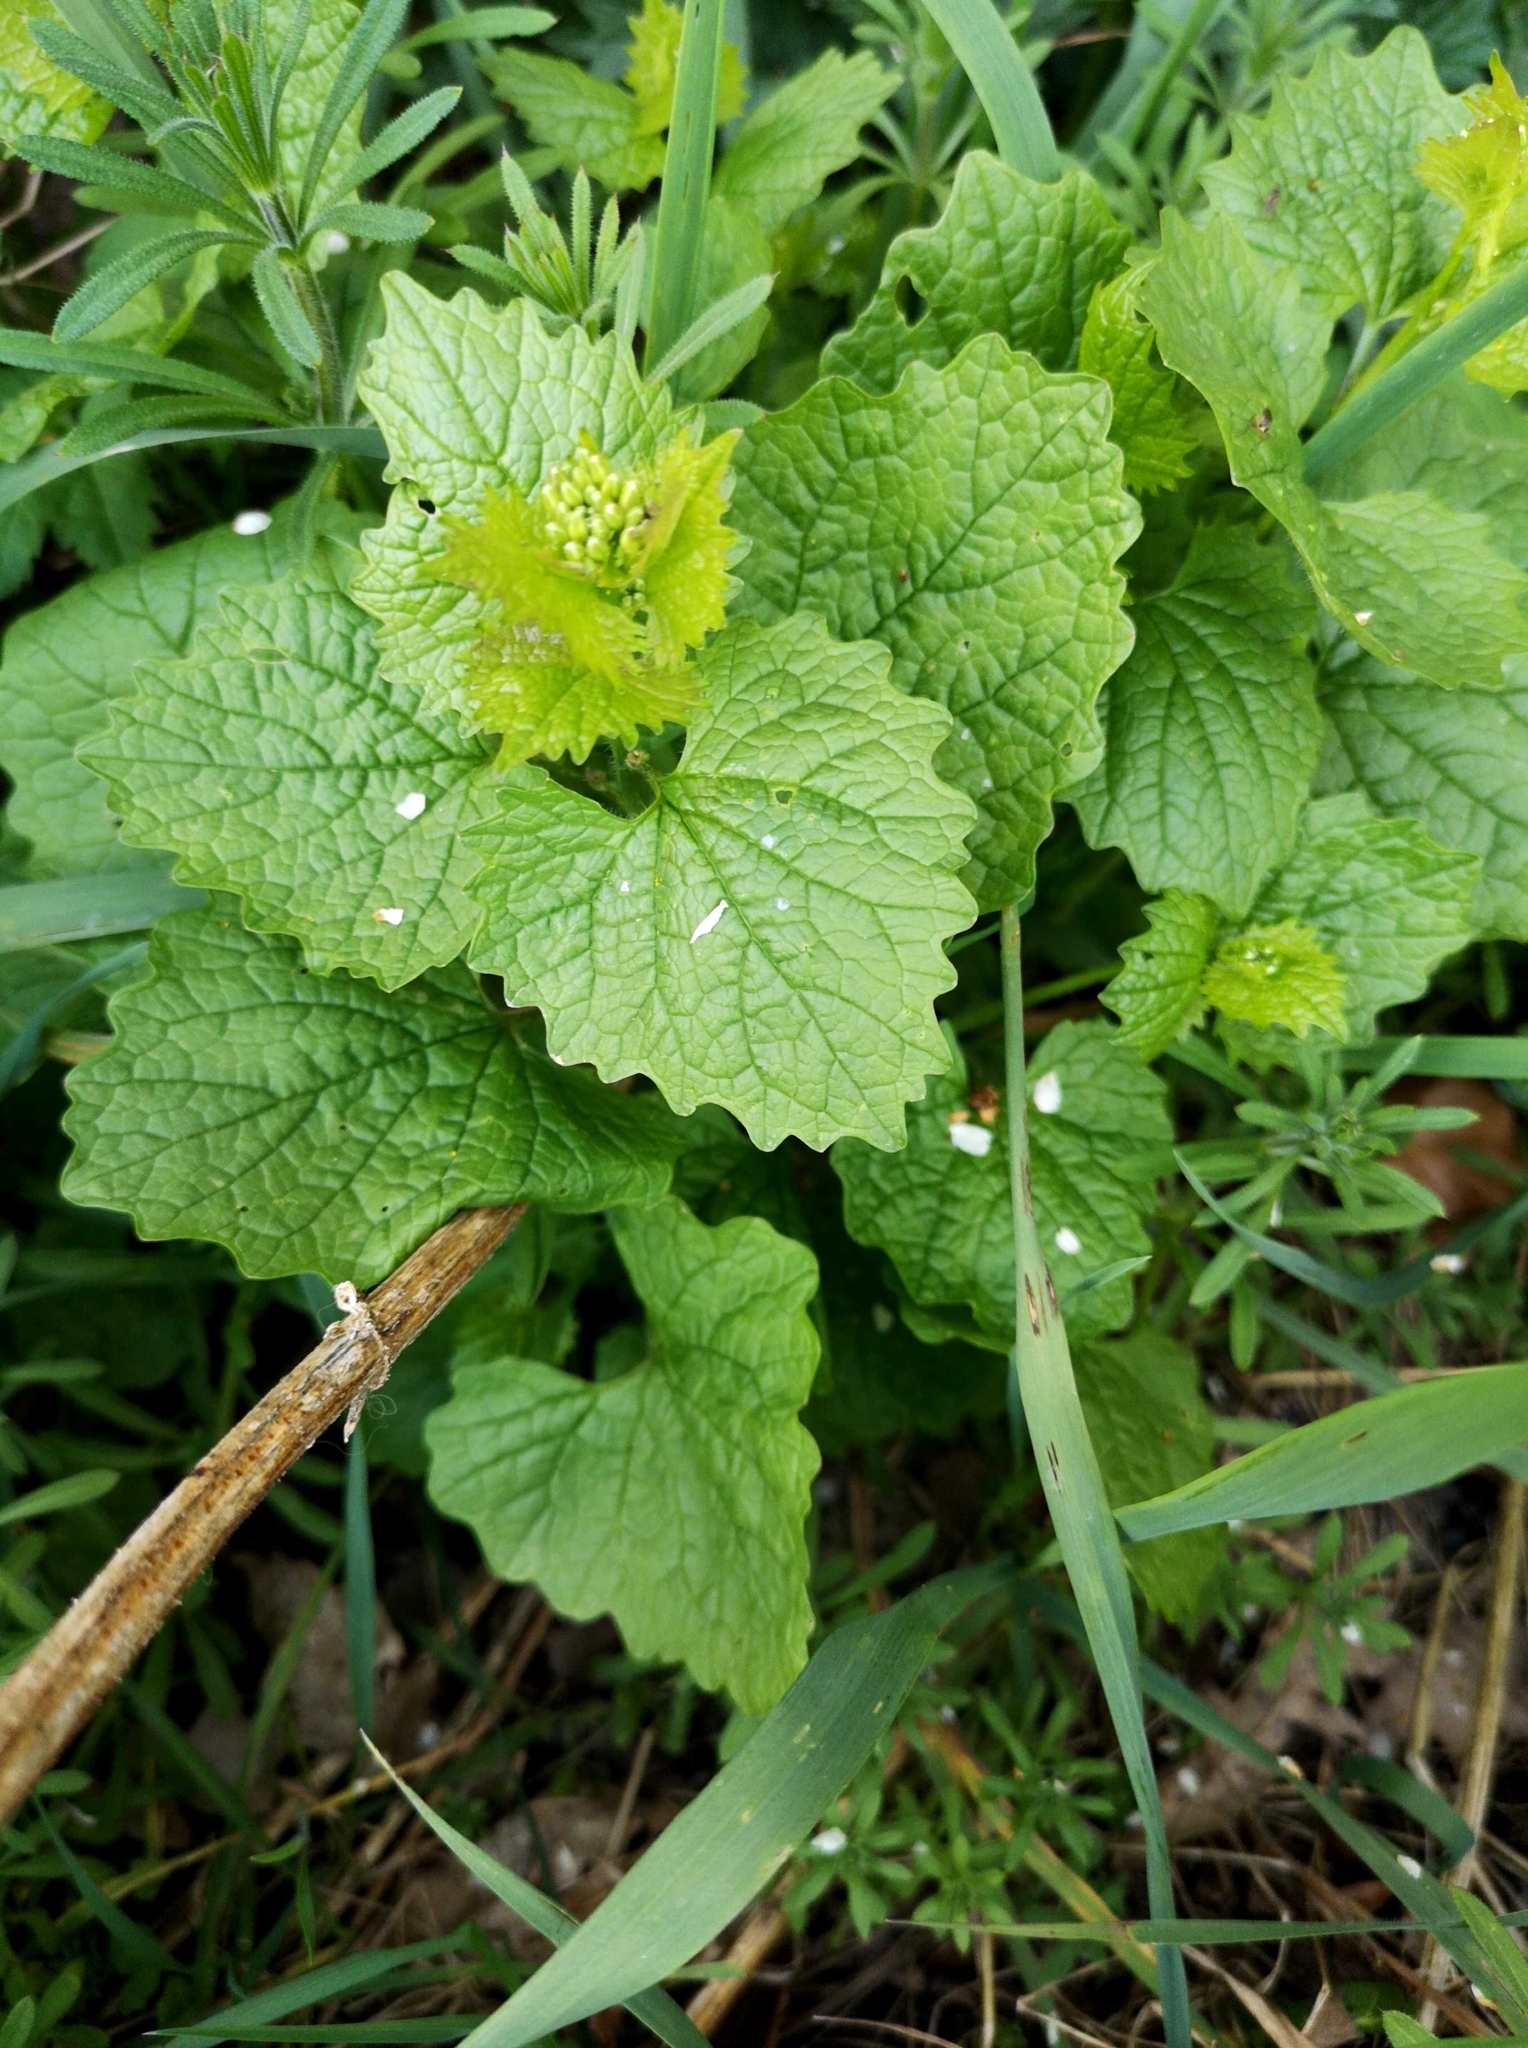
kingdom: Plantae
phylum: Tracheophyta
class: Magnoliopsida
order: Brassicales
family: Brassicaceae
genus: Alliaria
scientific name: Alliaria petiolata
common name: Garlic mustard
